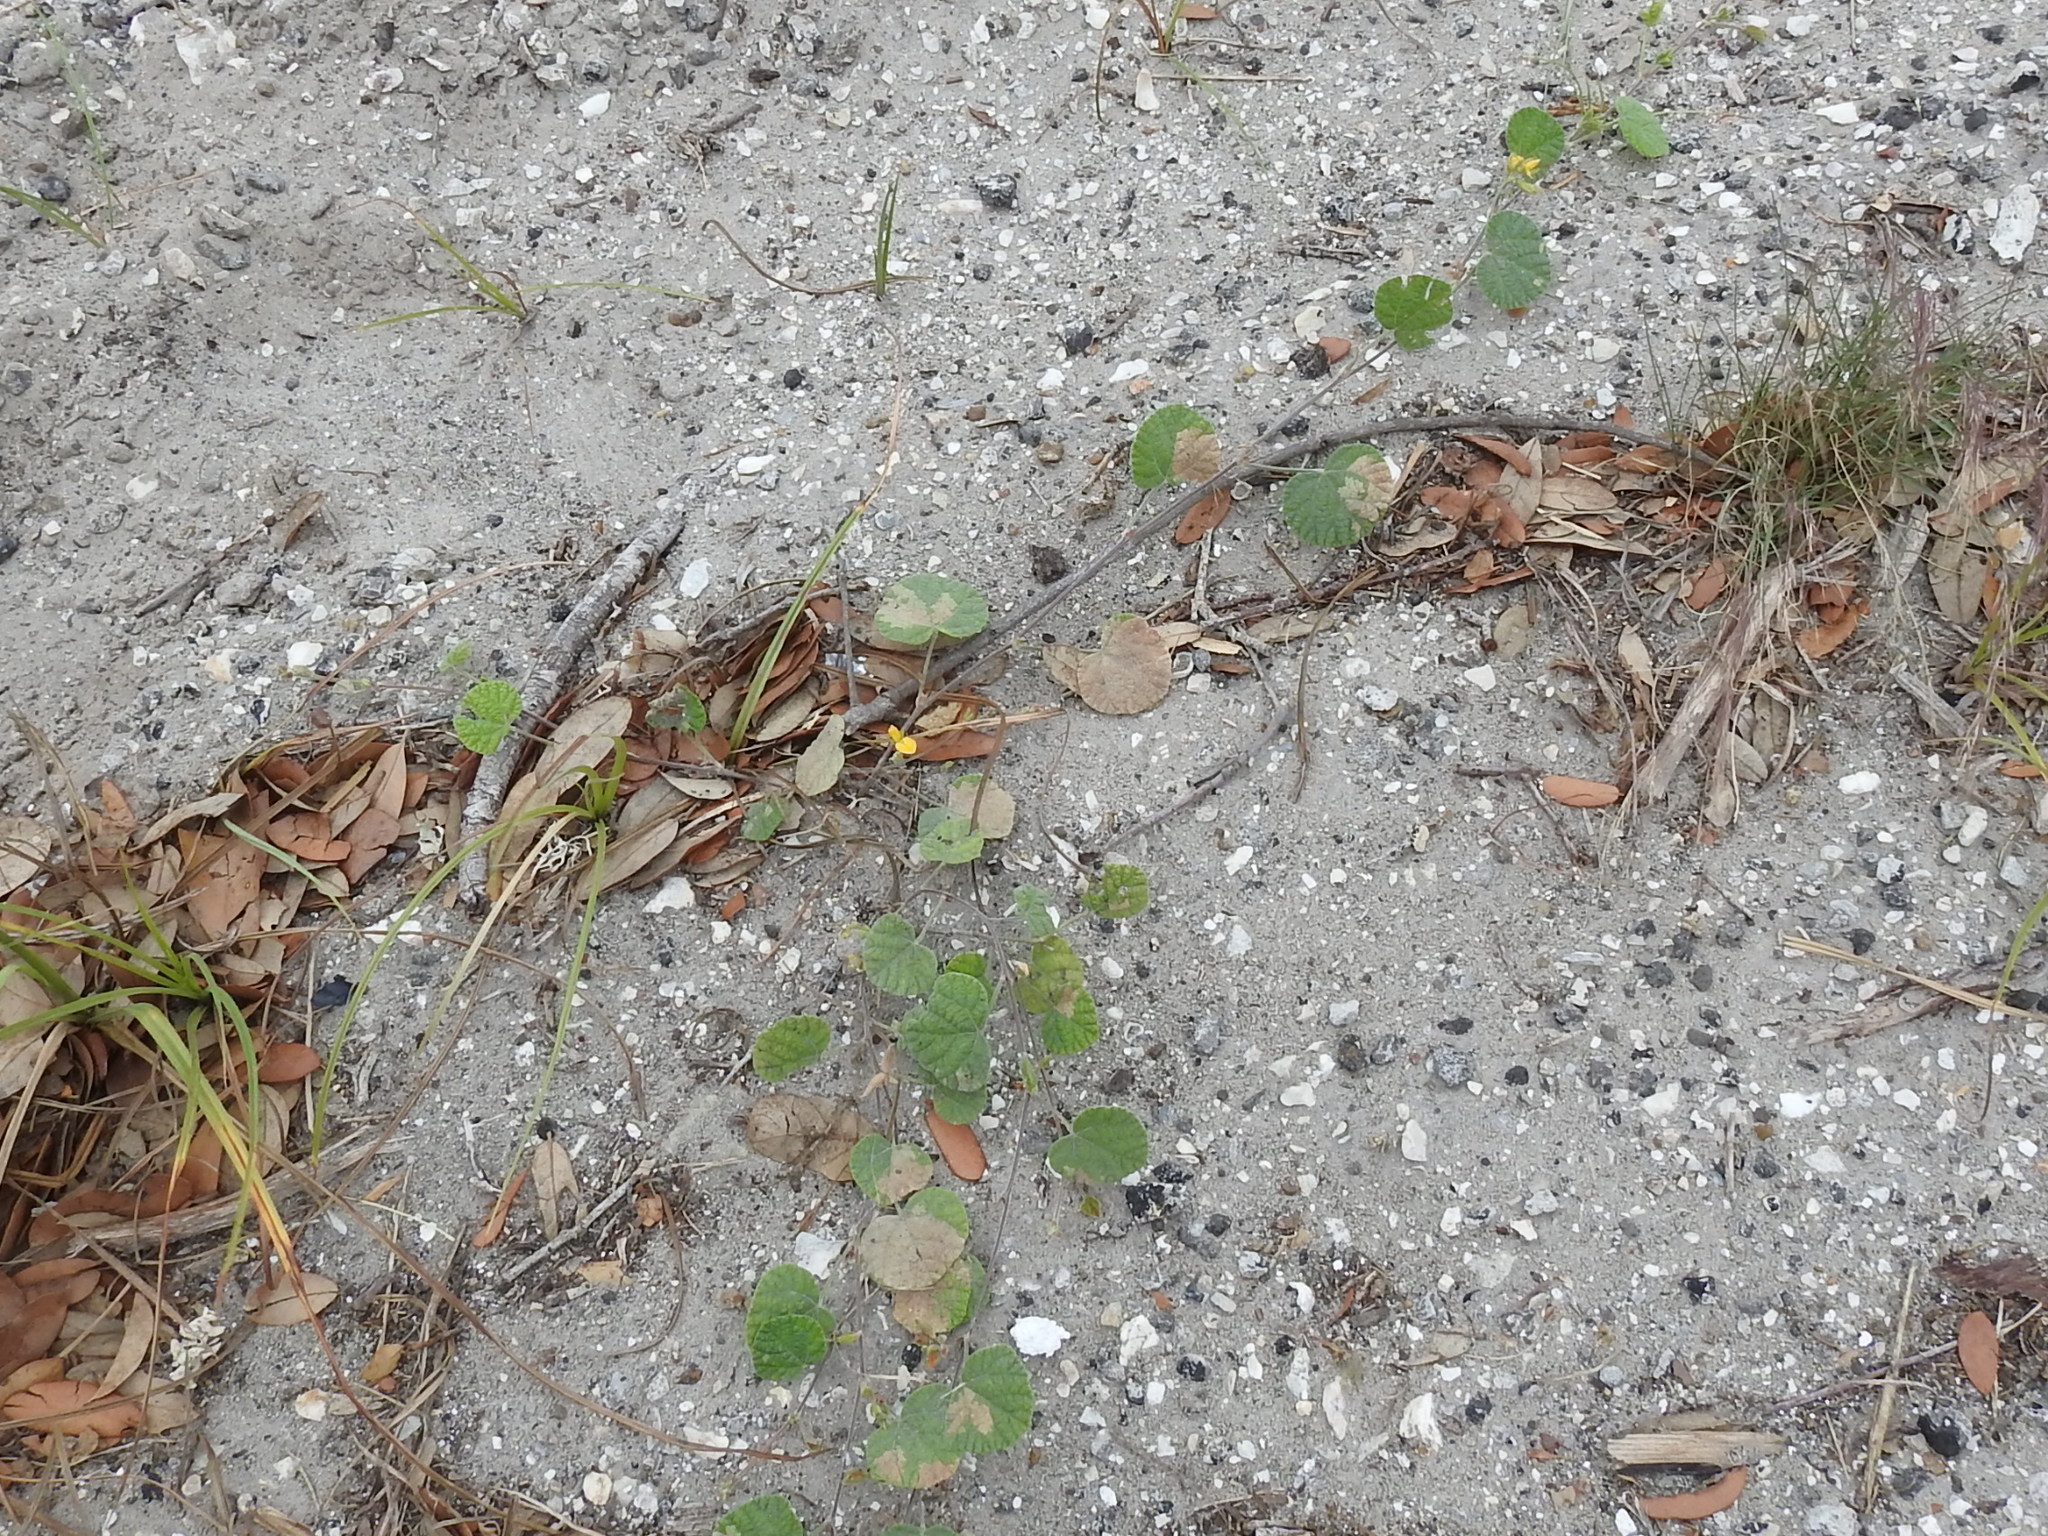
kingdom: Plantae
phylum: Tracheophyta
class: Magnoliopsida
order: Fabales
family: Fabaceae
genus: Rhynchosia
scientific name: Rhynchosia americana
